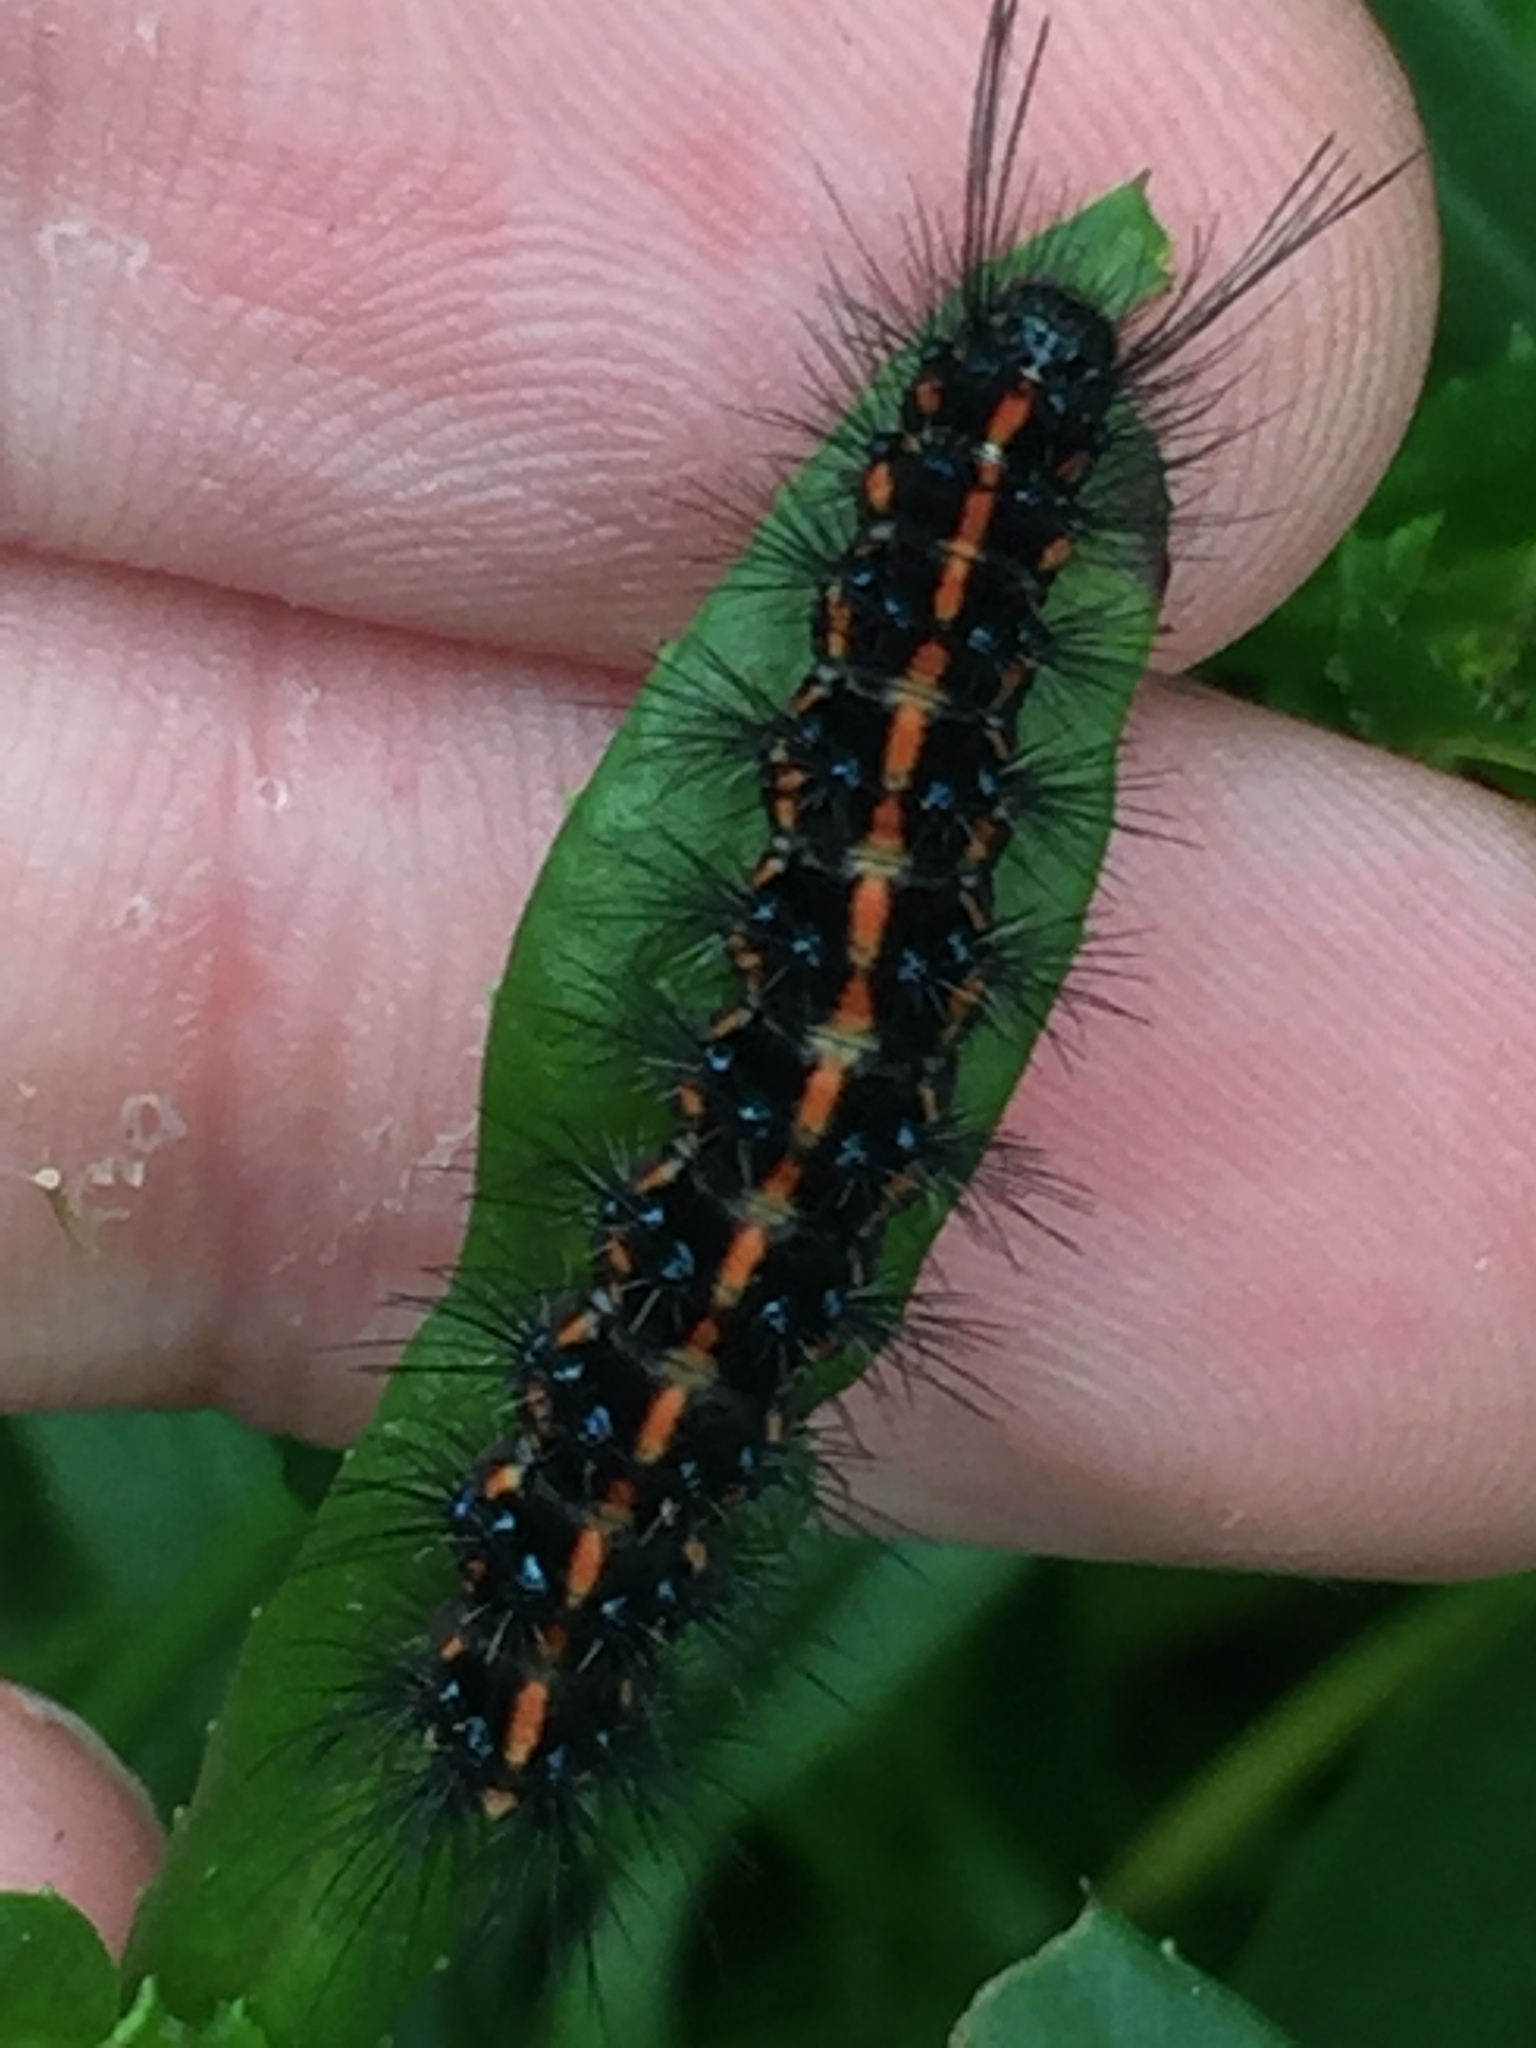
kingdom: Animalia
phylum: Arthropoda
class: Insecta
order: Lepidoptera
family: Erebidae
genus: Nyctemera
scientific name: Nyctemera amicus
